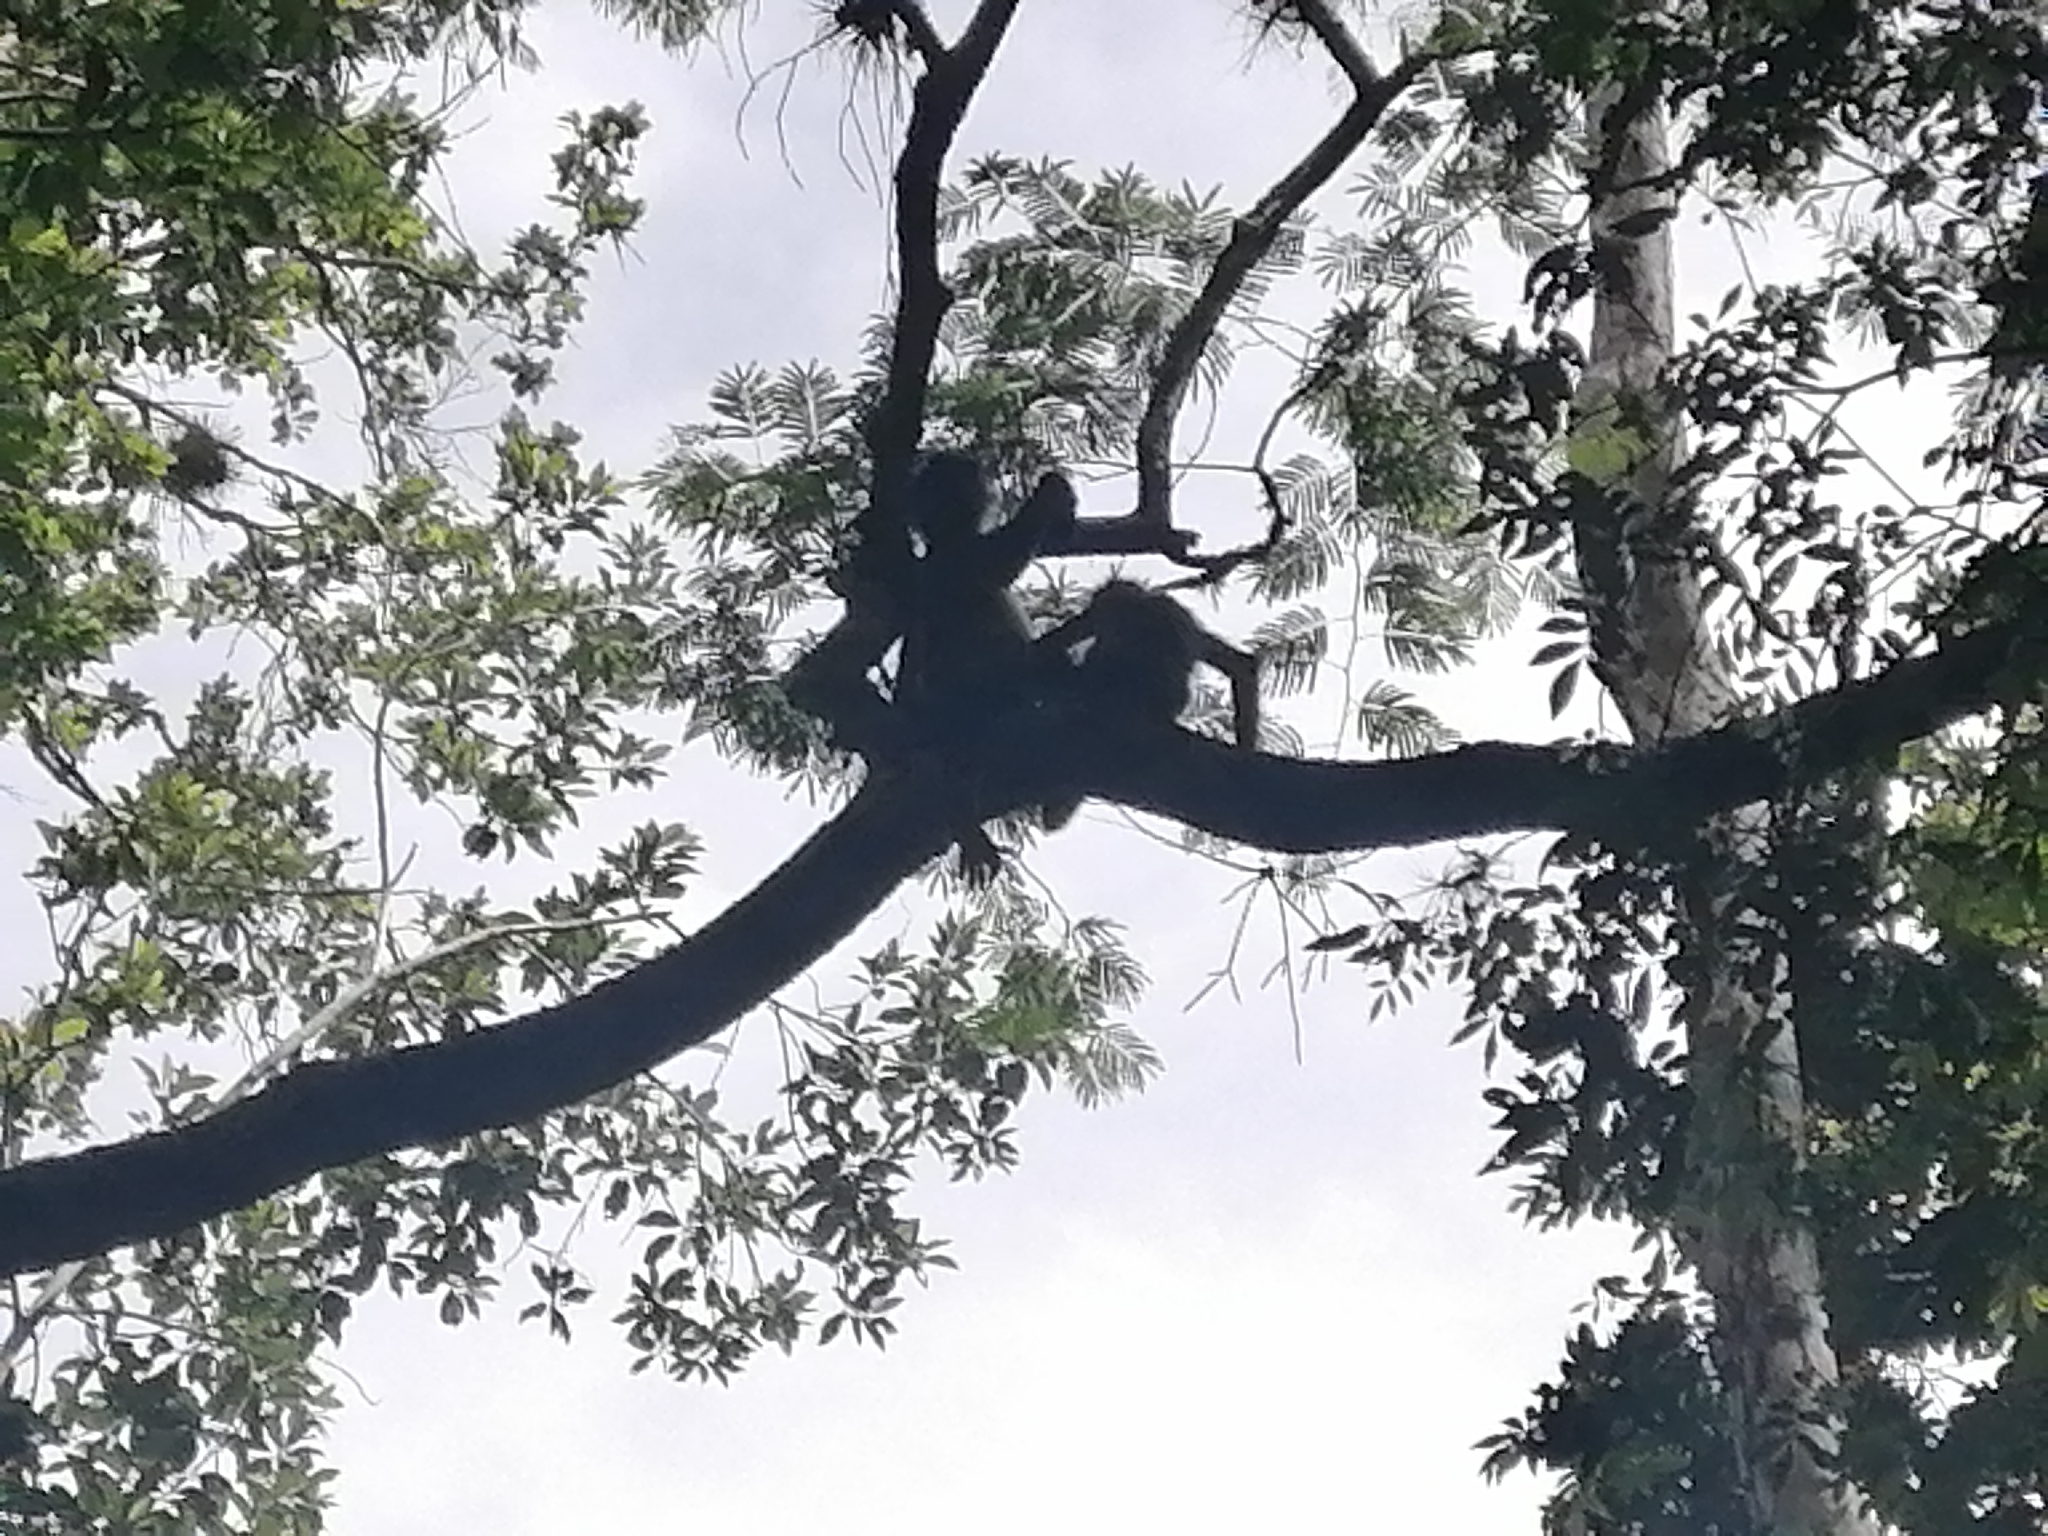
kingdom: Animalia
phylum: Chordata
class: Mammalia
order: Primates
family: Atelidae
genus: Ateles
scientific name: Ateles geoffroyi
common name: Black-handed spider monkey
